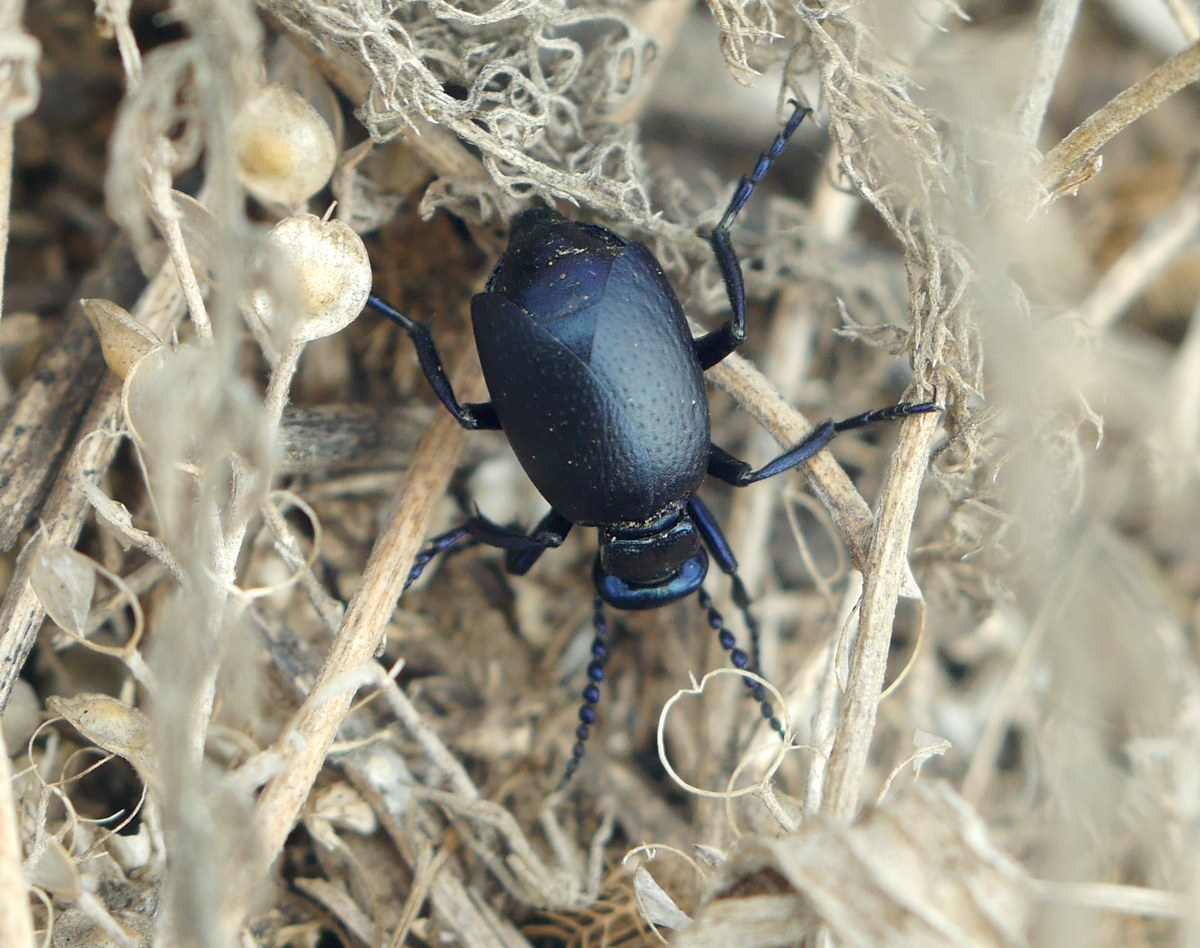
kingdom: Animalia
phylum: Arthropoda
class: Insecta
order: Coleoptera
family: Meloidae
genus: Meloe
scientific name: Meloe autumnalis
